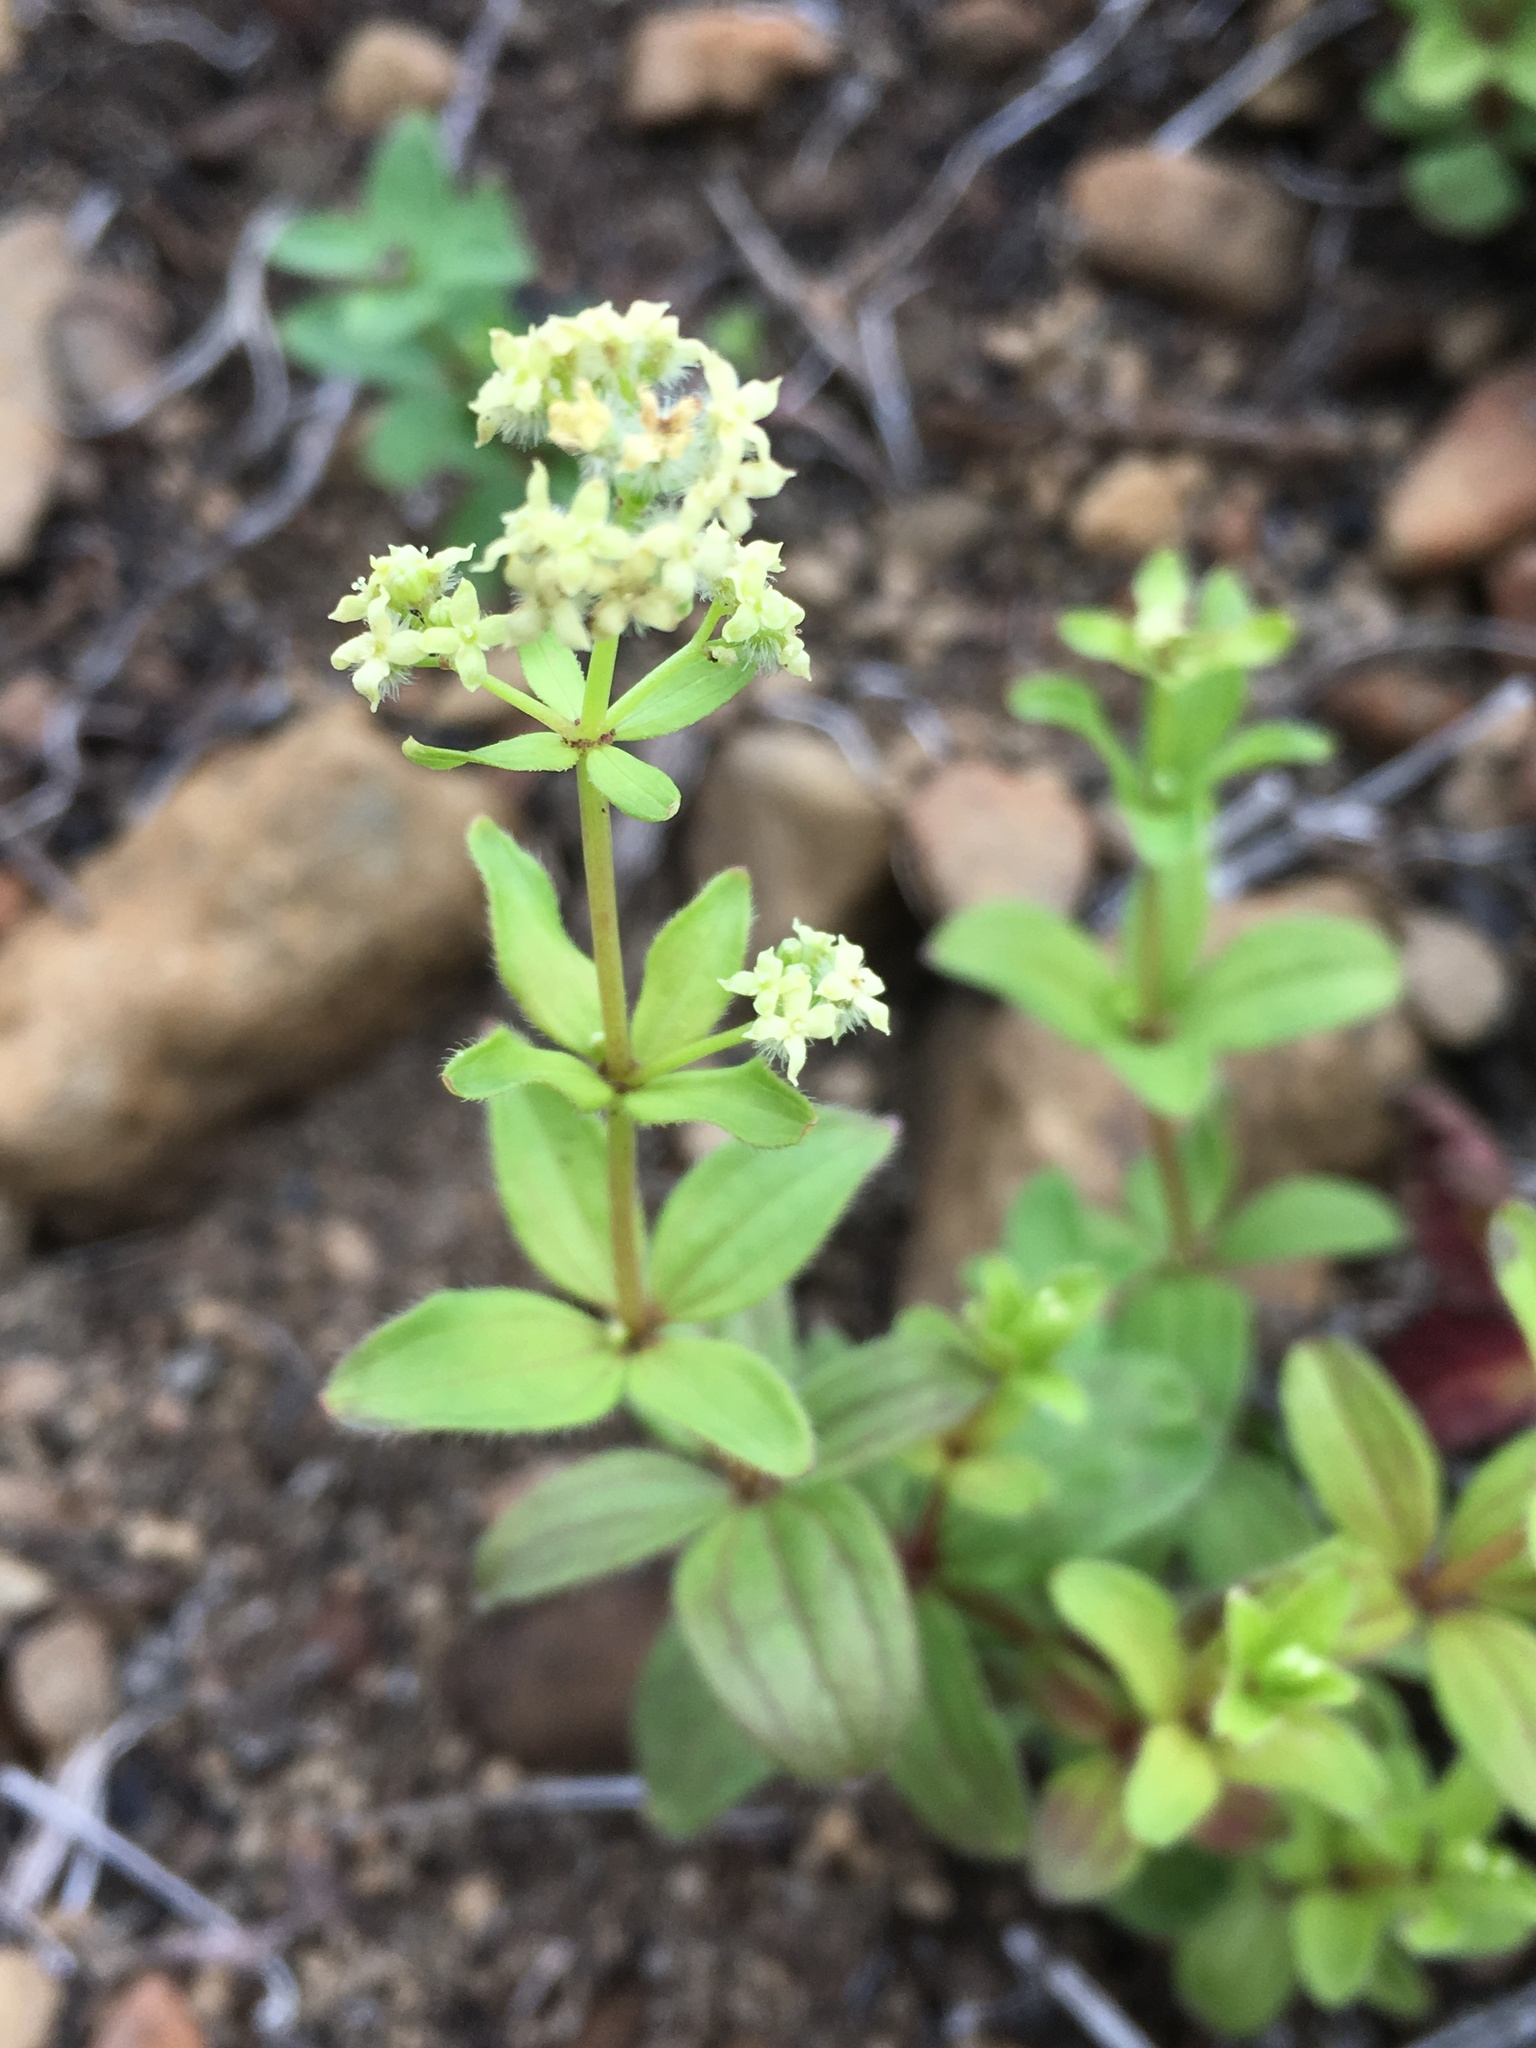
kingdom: Plantae
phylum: Tracheophyta
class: Magnoliopsida
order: Gentianales
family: Rubiaceae
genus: Galium
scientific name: Galium oreganum
